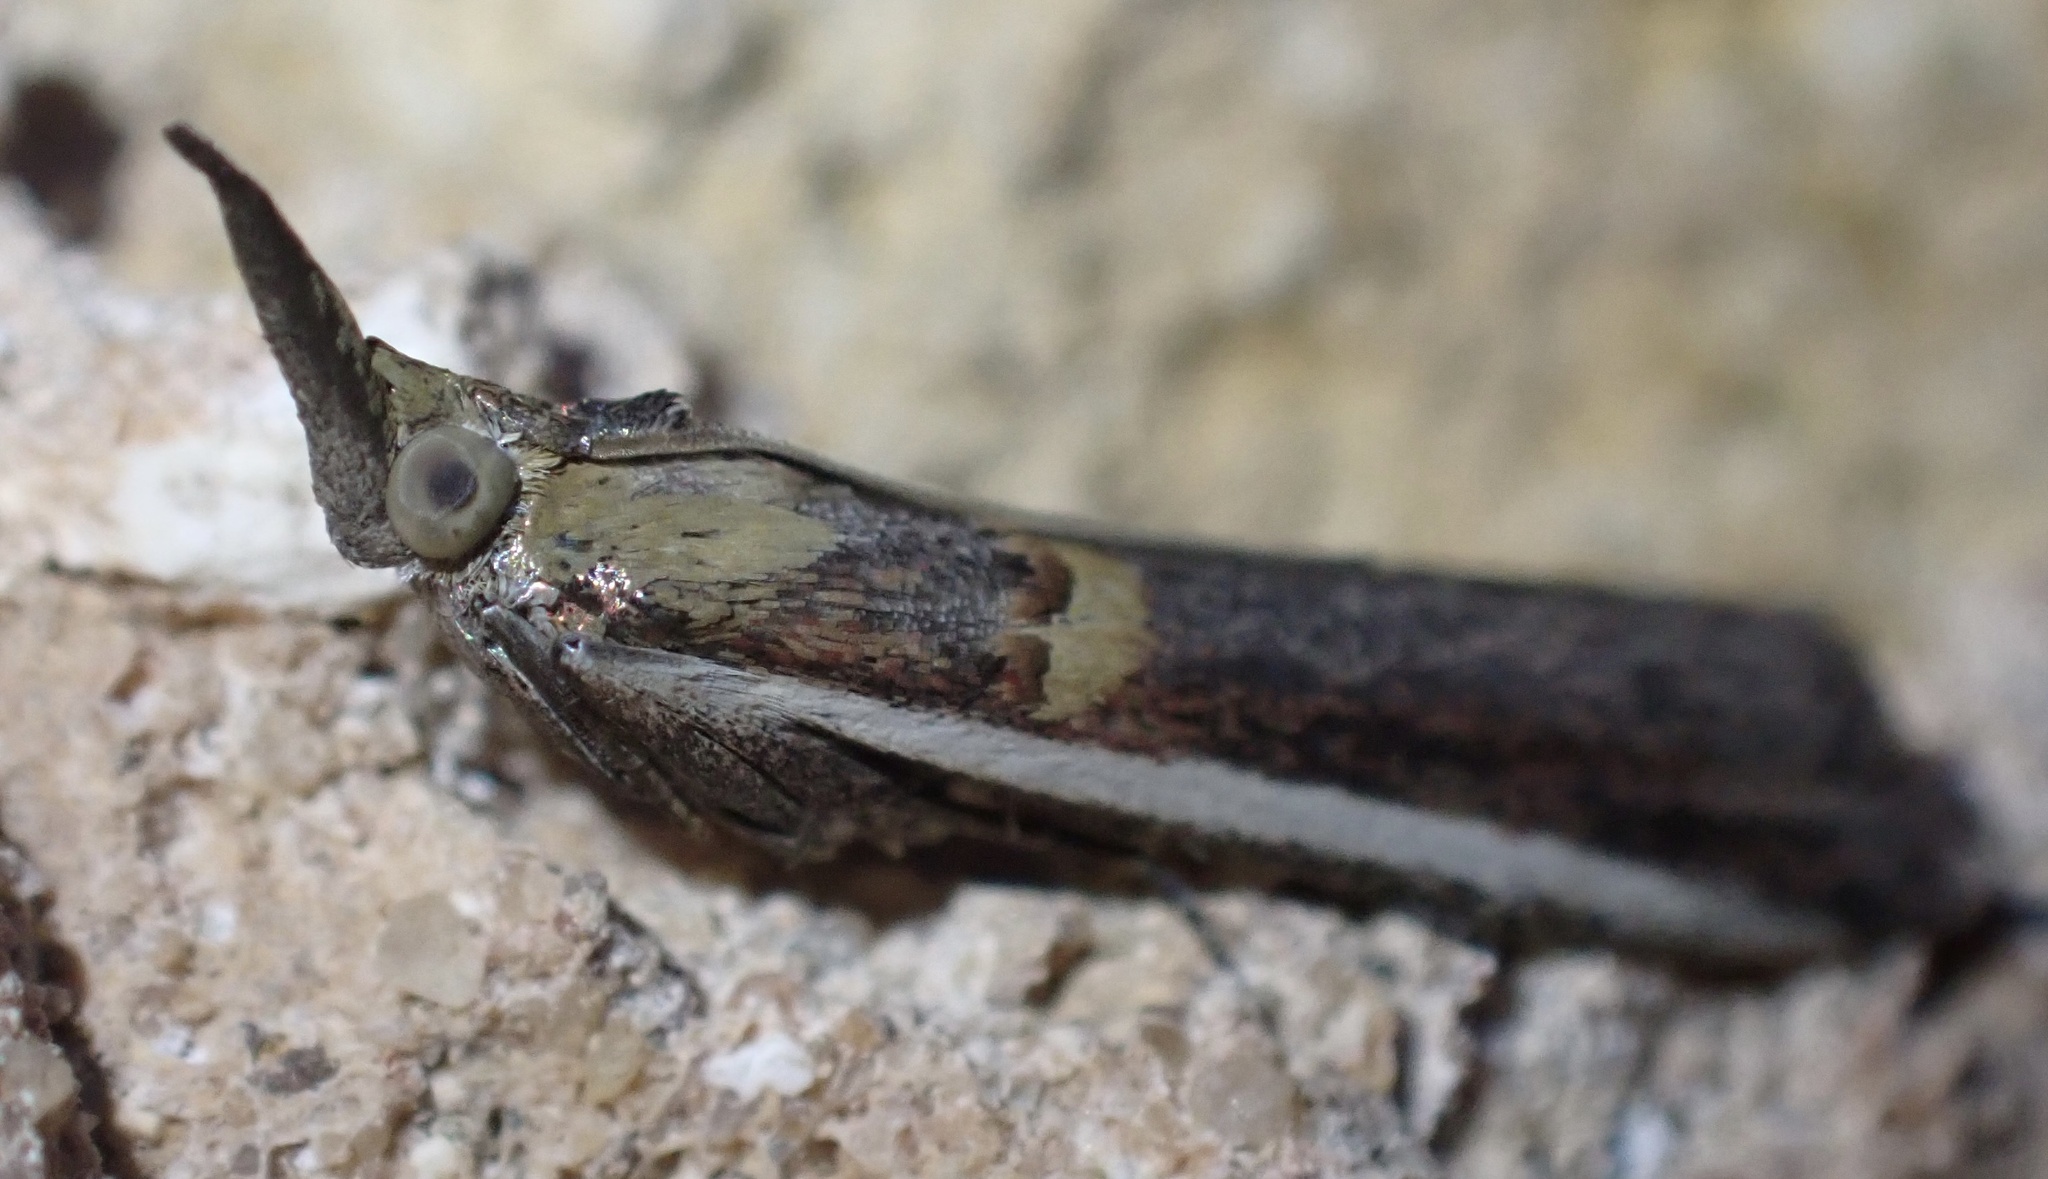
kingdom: Animalia
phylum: Arthropoda
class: Insecta
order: Lepidoptera
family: Pyralidae
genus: Etiella
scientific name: Etiella zinckenella
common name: Gold-banded etiella moth
